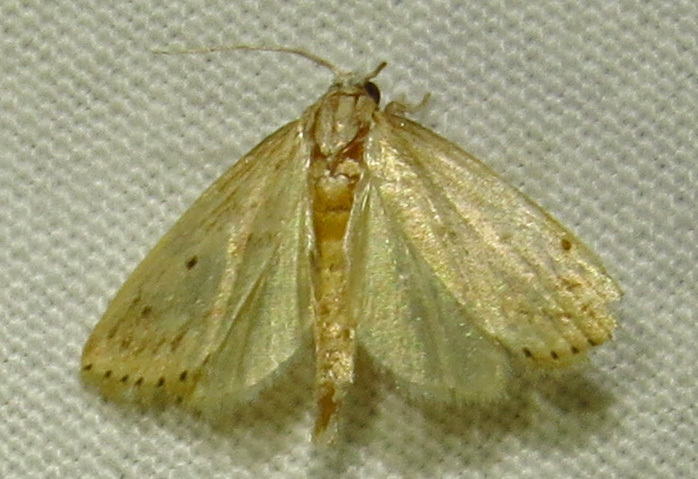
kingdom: Animalia
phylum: Arthropoda
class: Insecta
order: Lepidoptera
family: Crambidae
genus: Diatraea
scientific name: Diatraea lisetta
